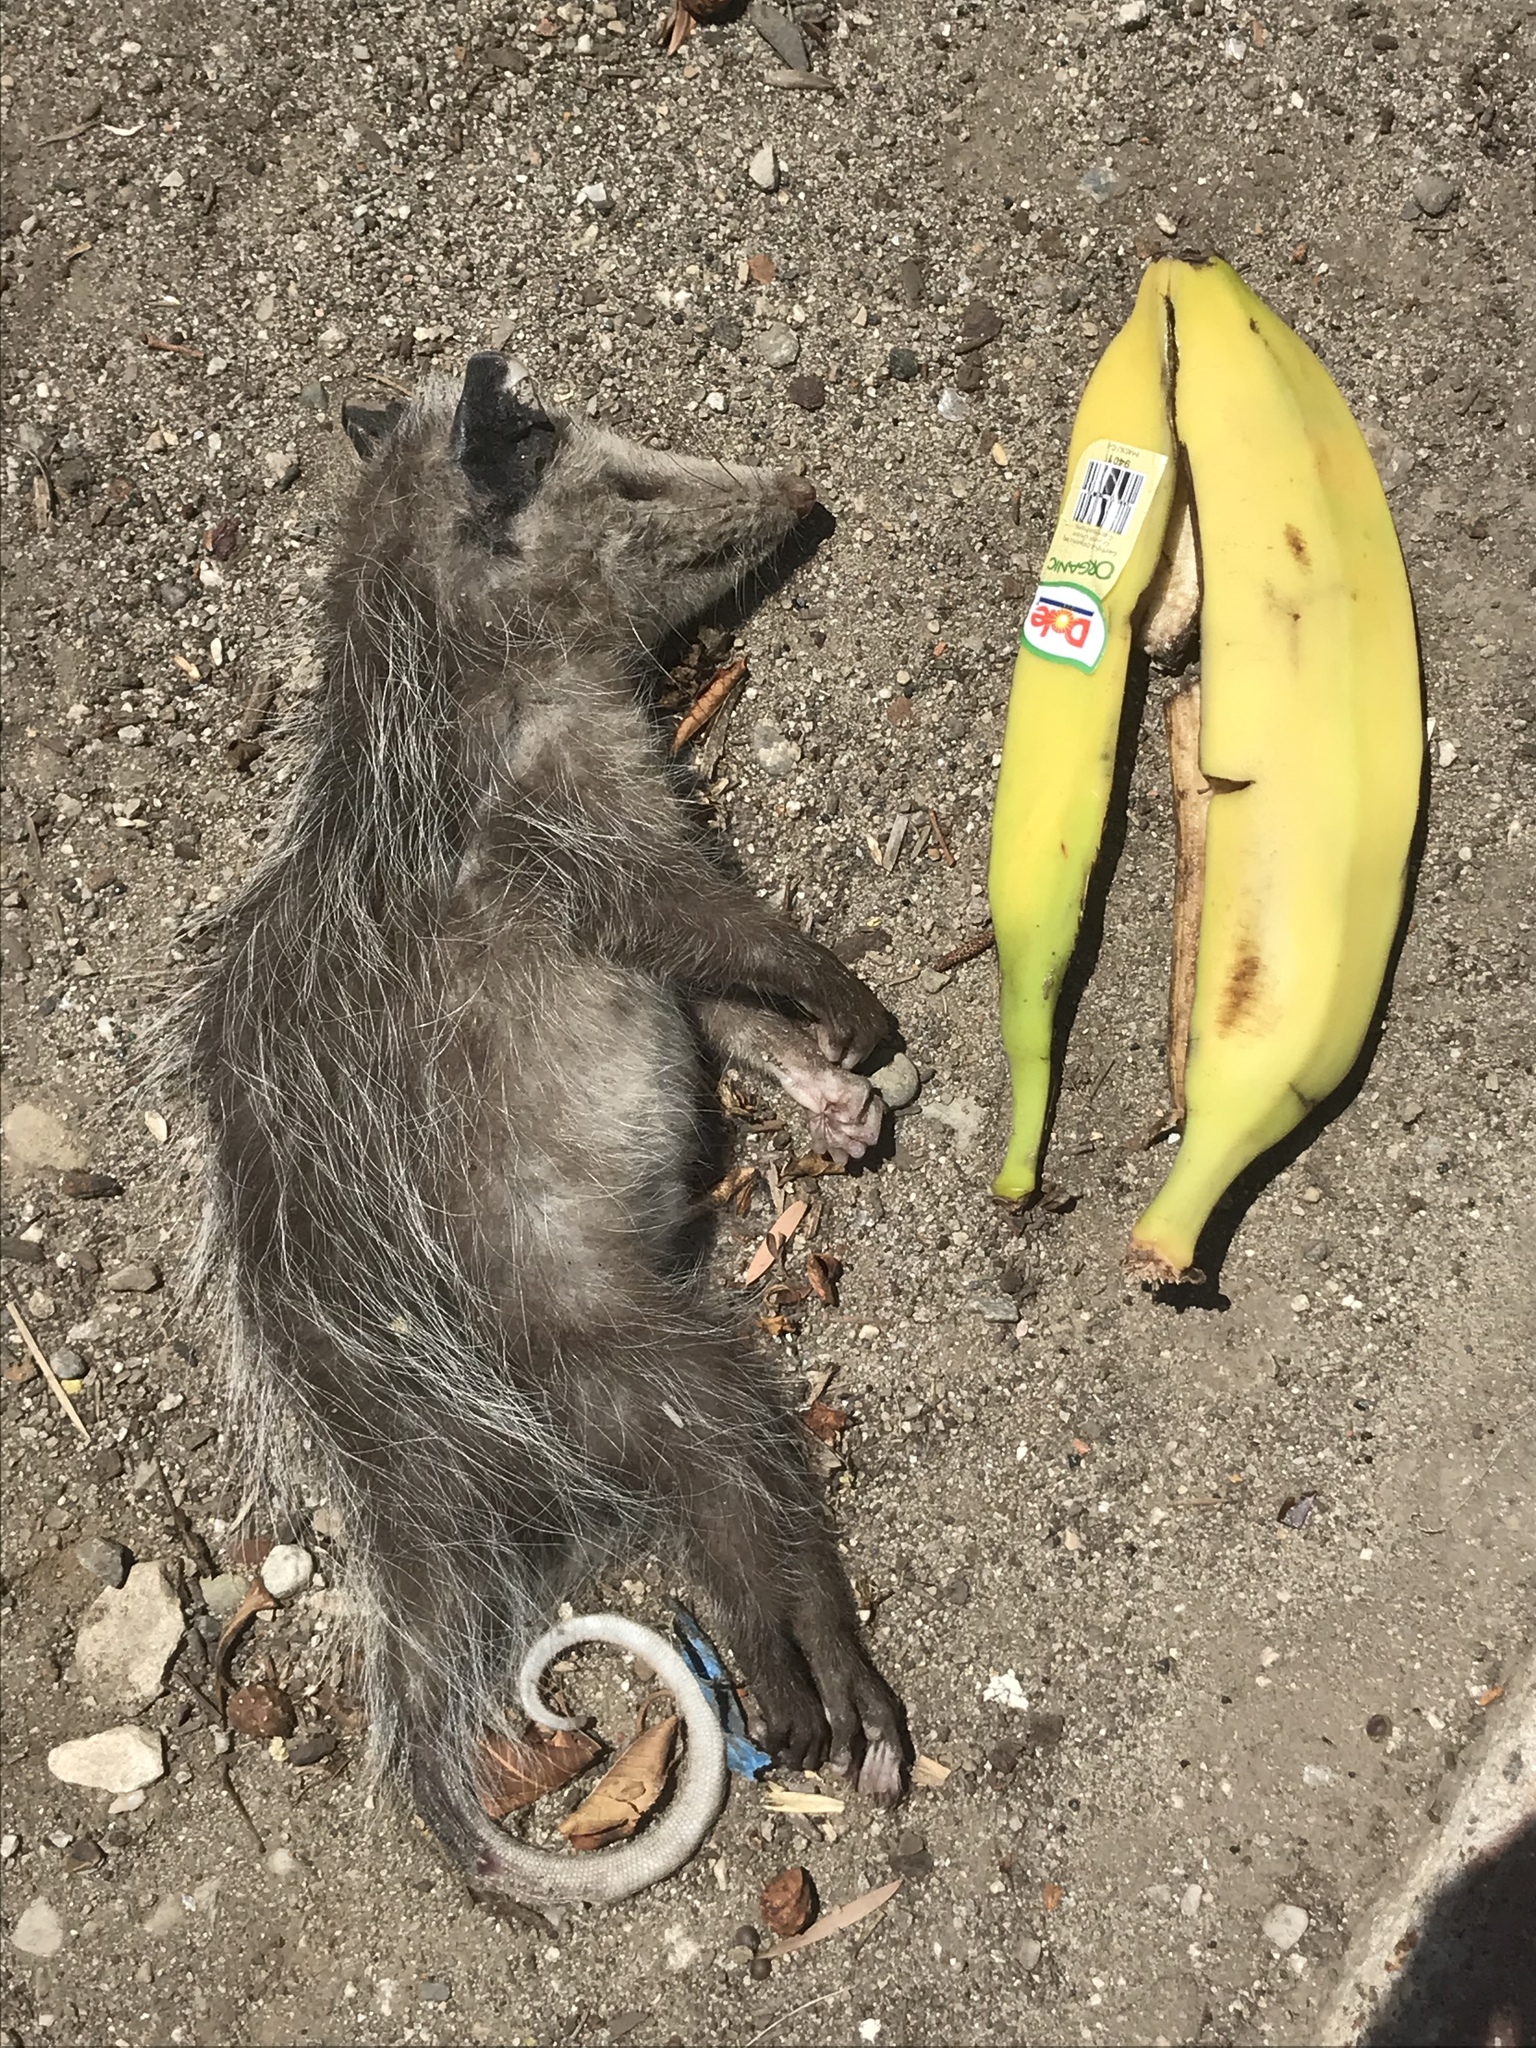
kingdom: Animalia
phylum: Chordata
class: Mammalia
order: Didelphimorphia
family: Didelphidae
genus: Didelphis
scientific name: Didelphis virginiana
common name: Virginia opossum
